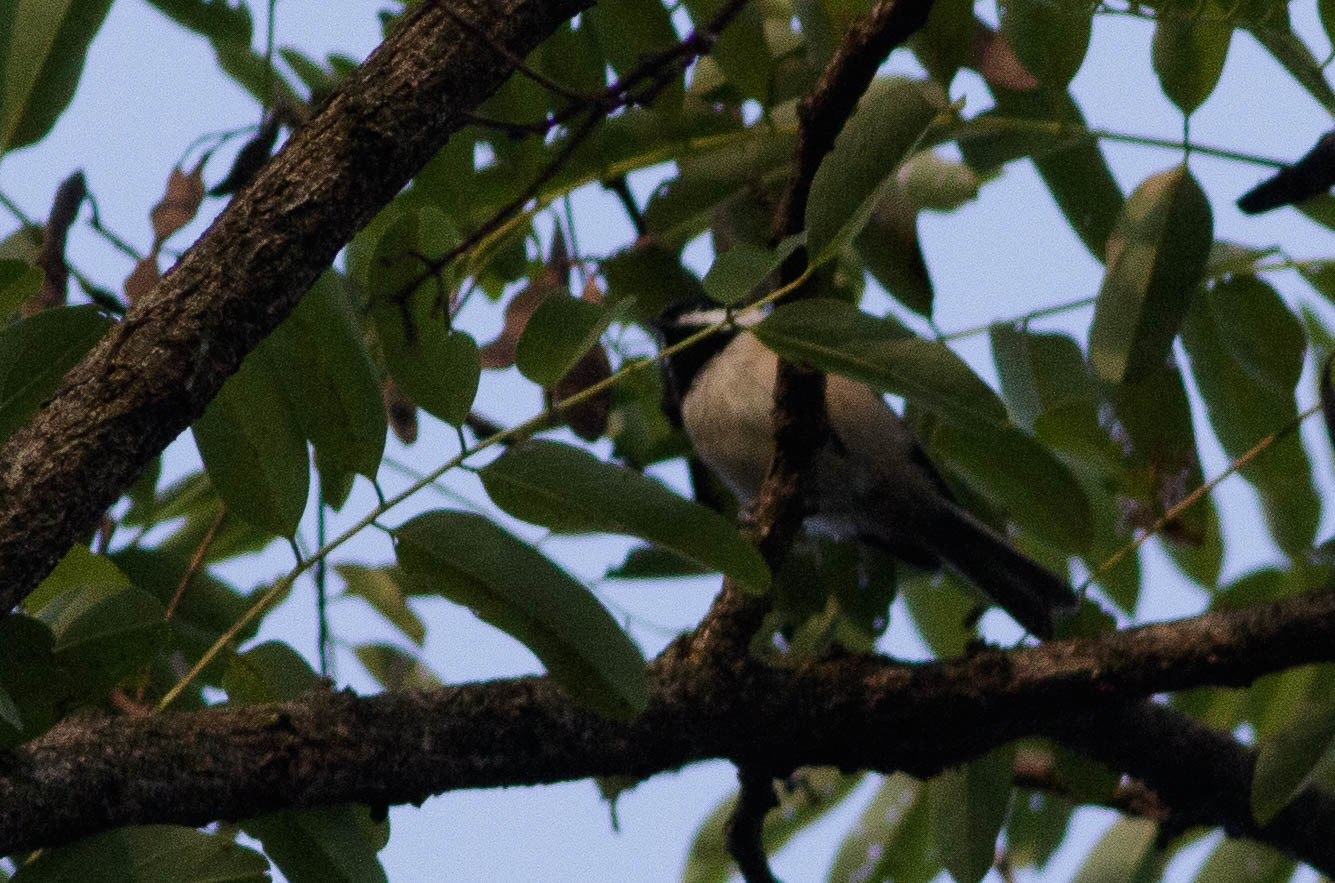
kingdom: Animalia
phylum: Chordata
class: Aves
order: Passeriformes
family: Paridae
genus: Poecile
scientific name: Poecile carolinensis
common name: Carolina chickadee
